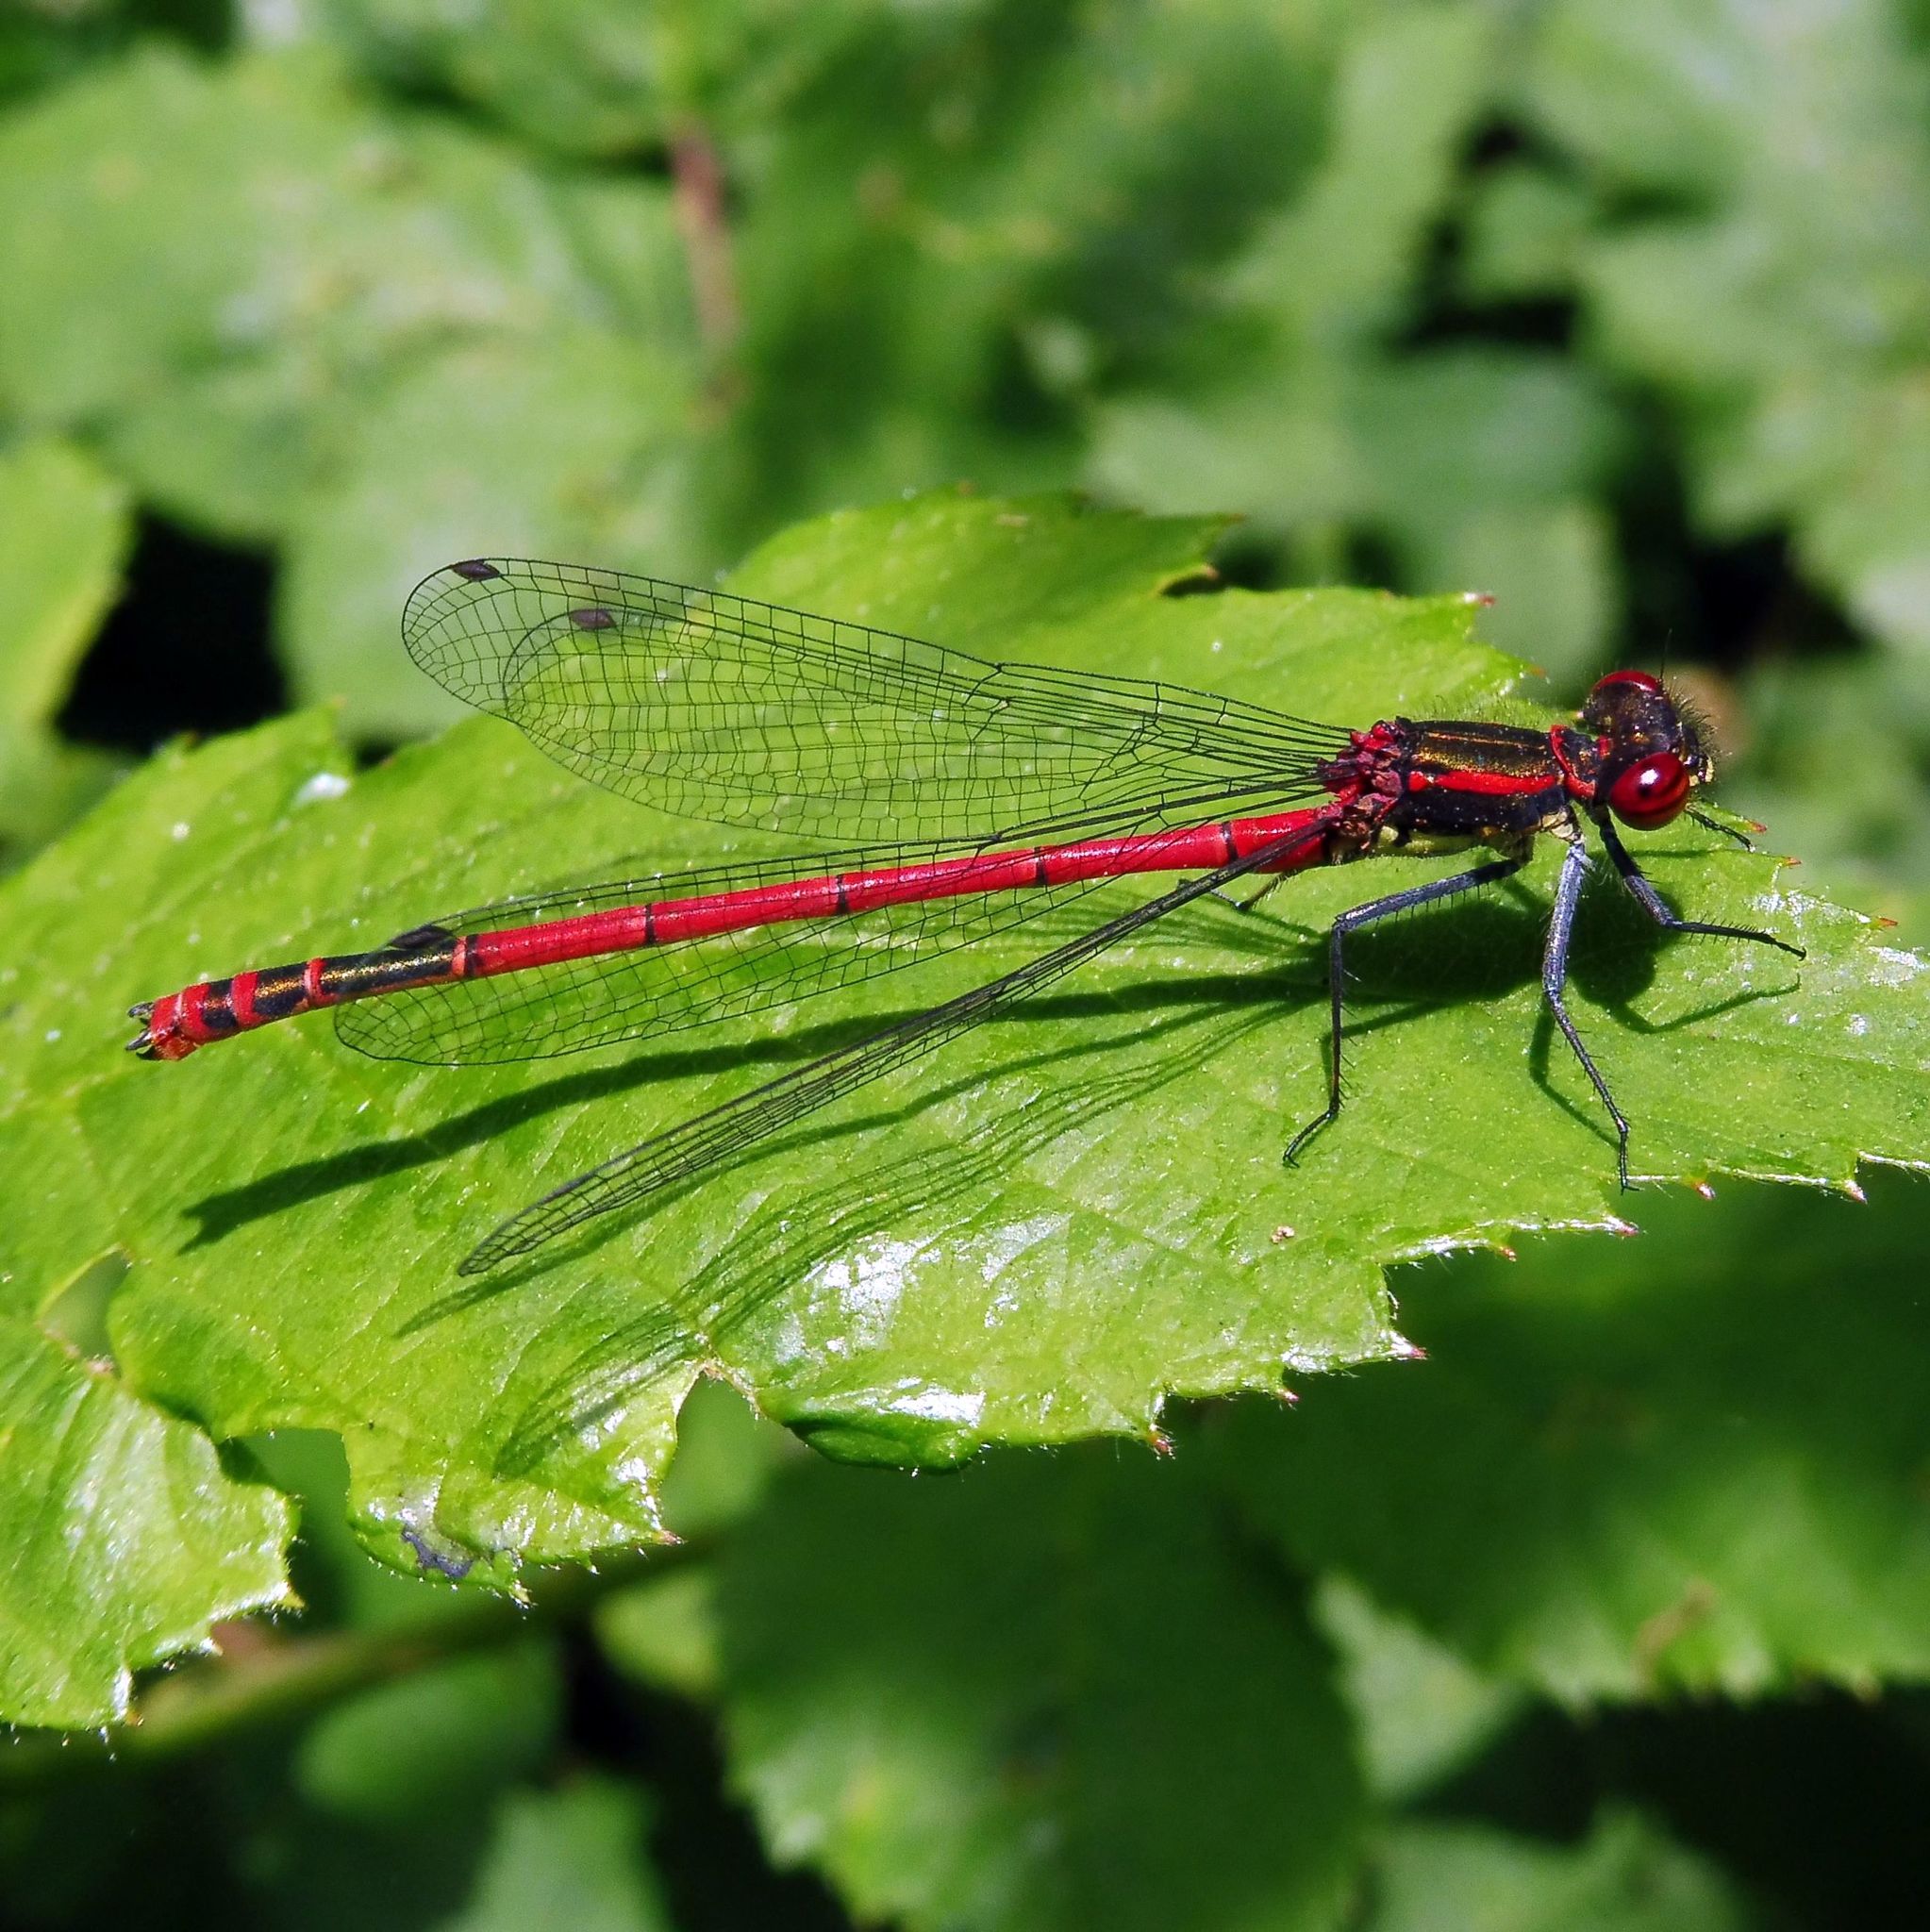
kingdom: Animalia
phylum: Arthropoda
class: Insecta
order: Odonata
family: Coenagrionidae
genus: Pyrrhosoma
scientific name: Pyrrhosoma nymphula
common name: Large red damsel
